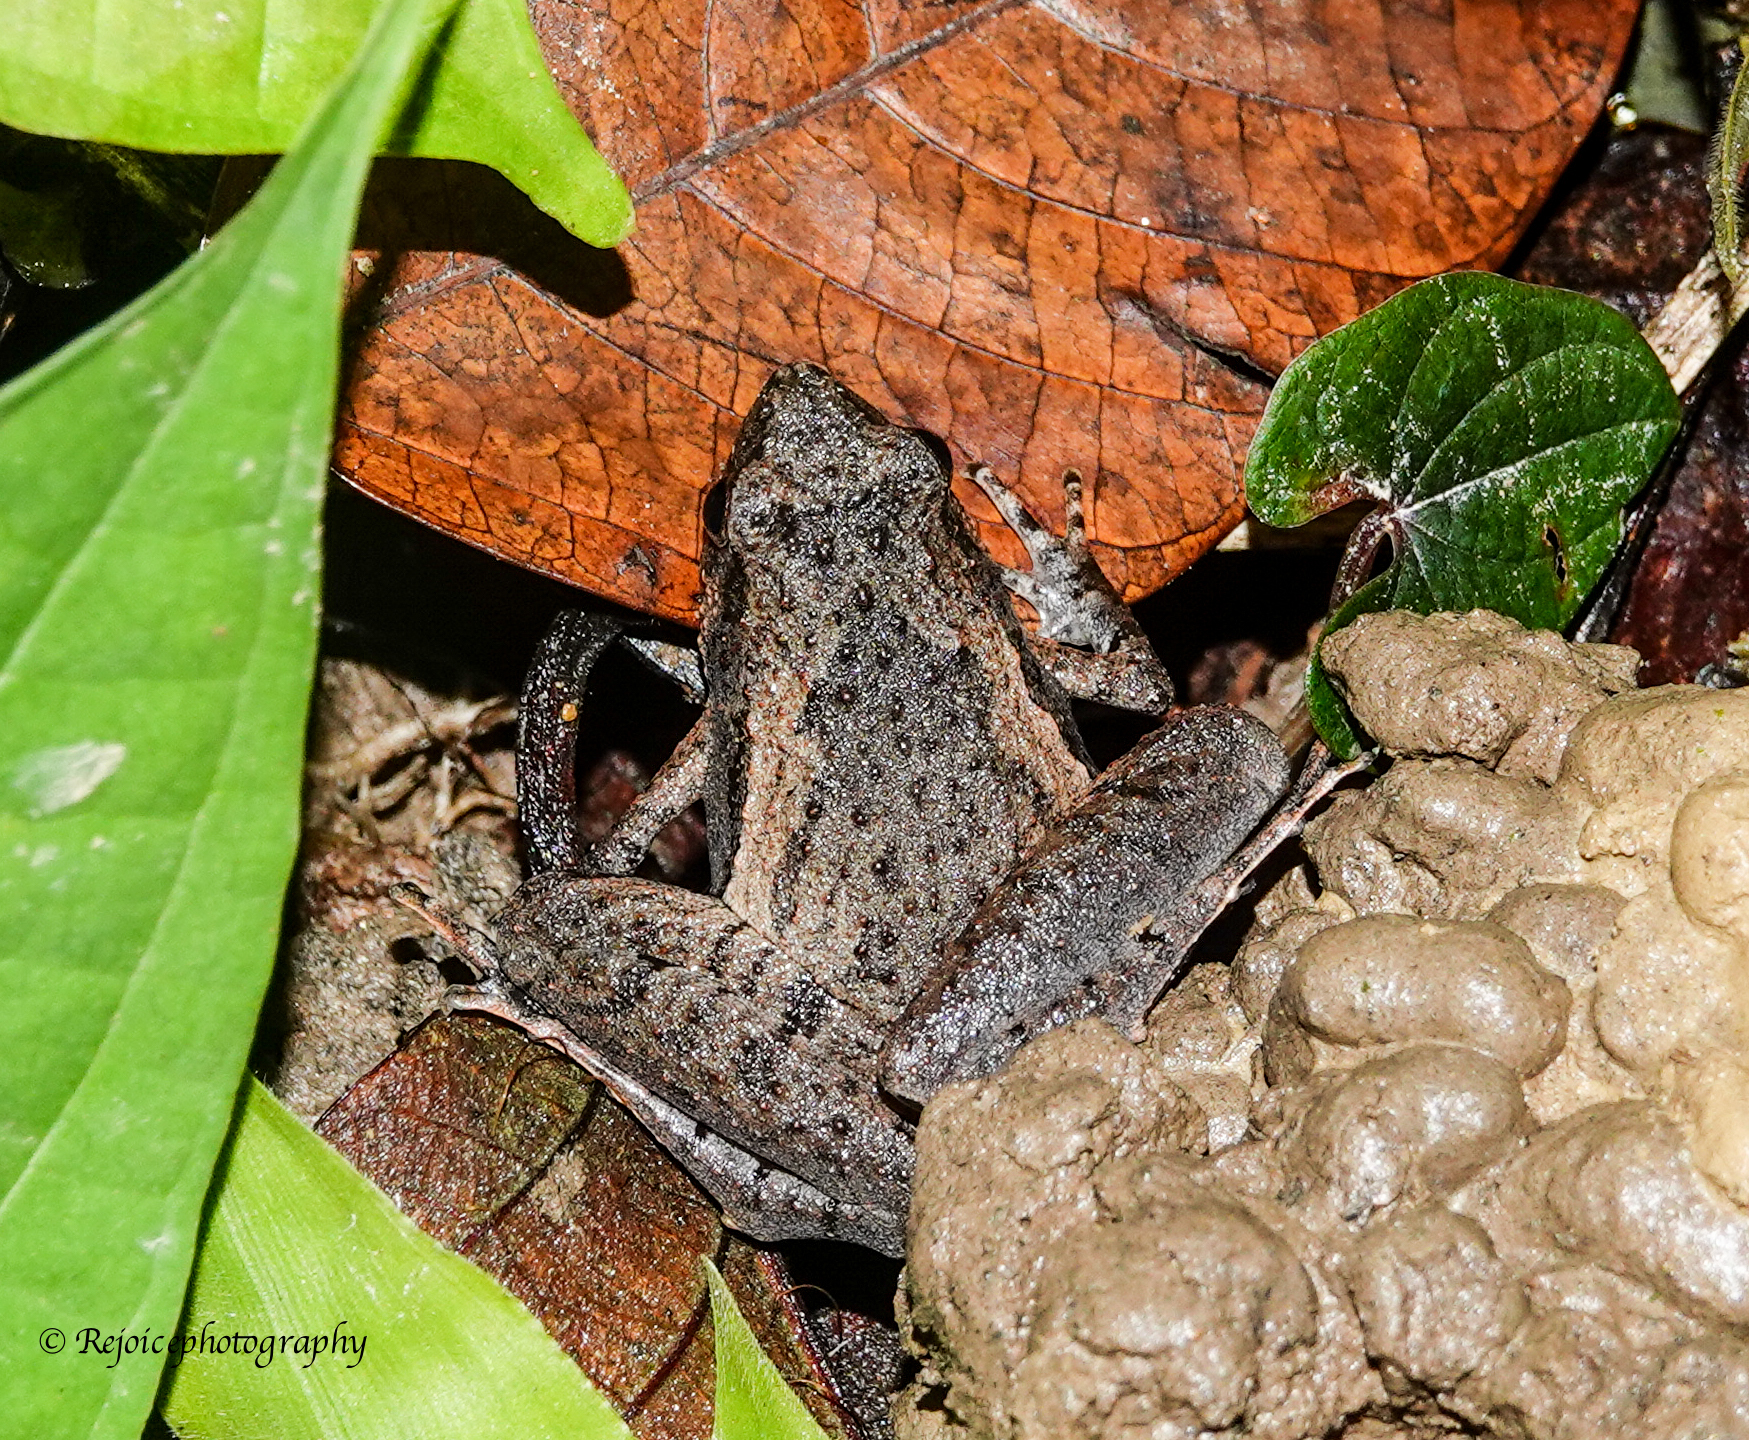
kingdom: Animalia
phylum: Chordata
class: Amphibia
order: Anura
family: Microhylidae
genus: Microhyla
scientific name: Microhyla berdmorei
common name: Berdmore’s narrow-mouthed frog,large pygmy frog
